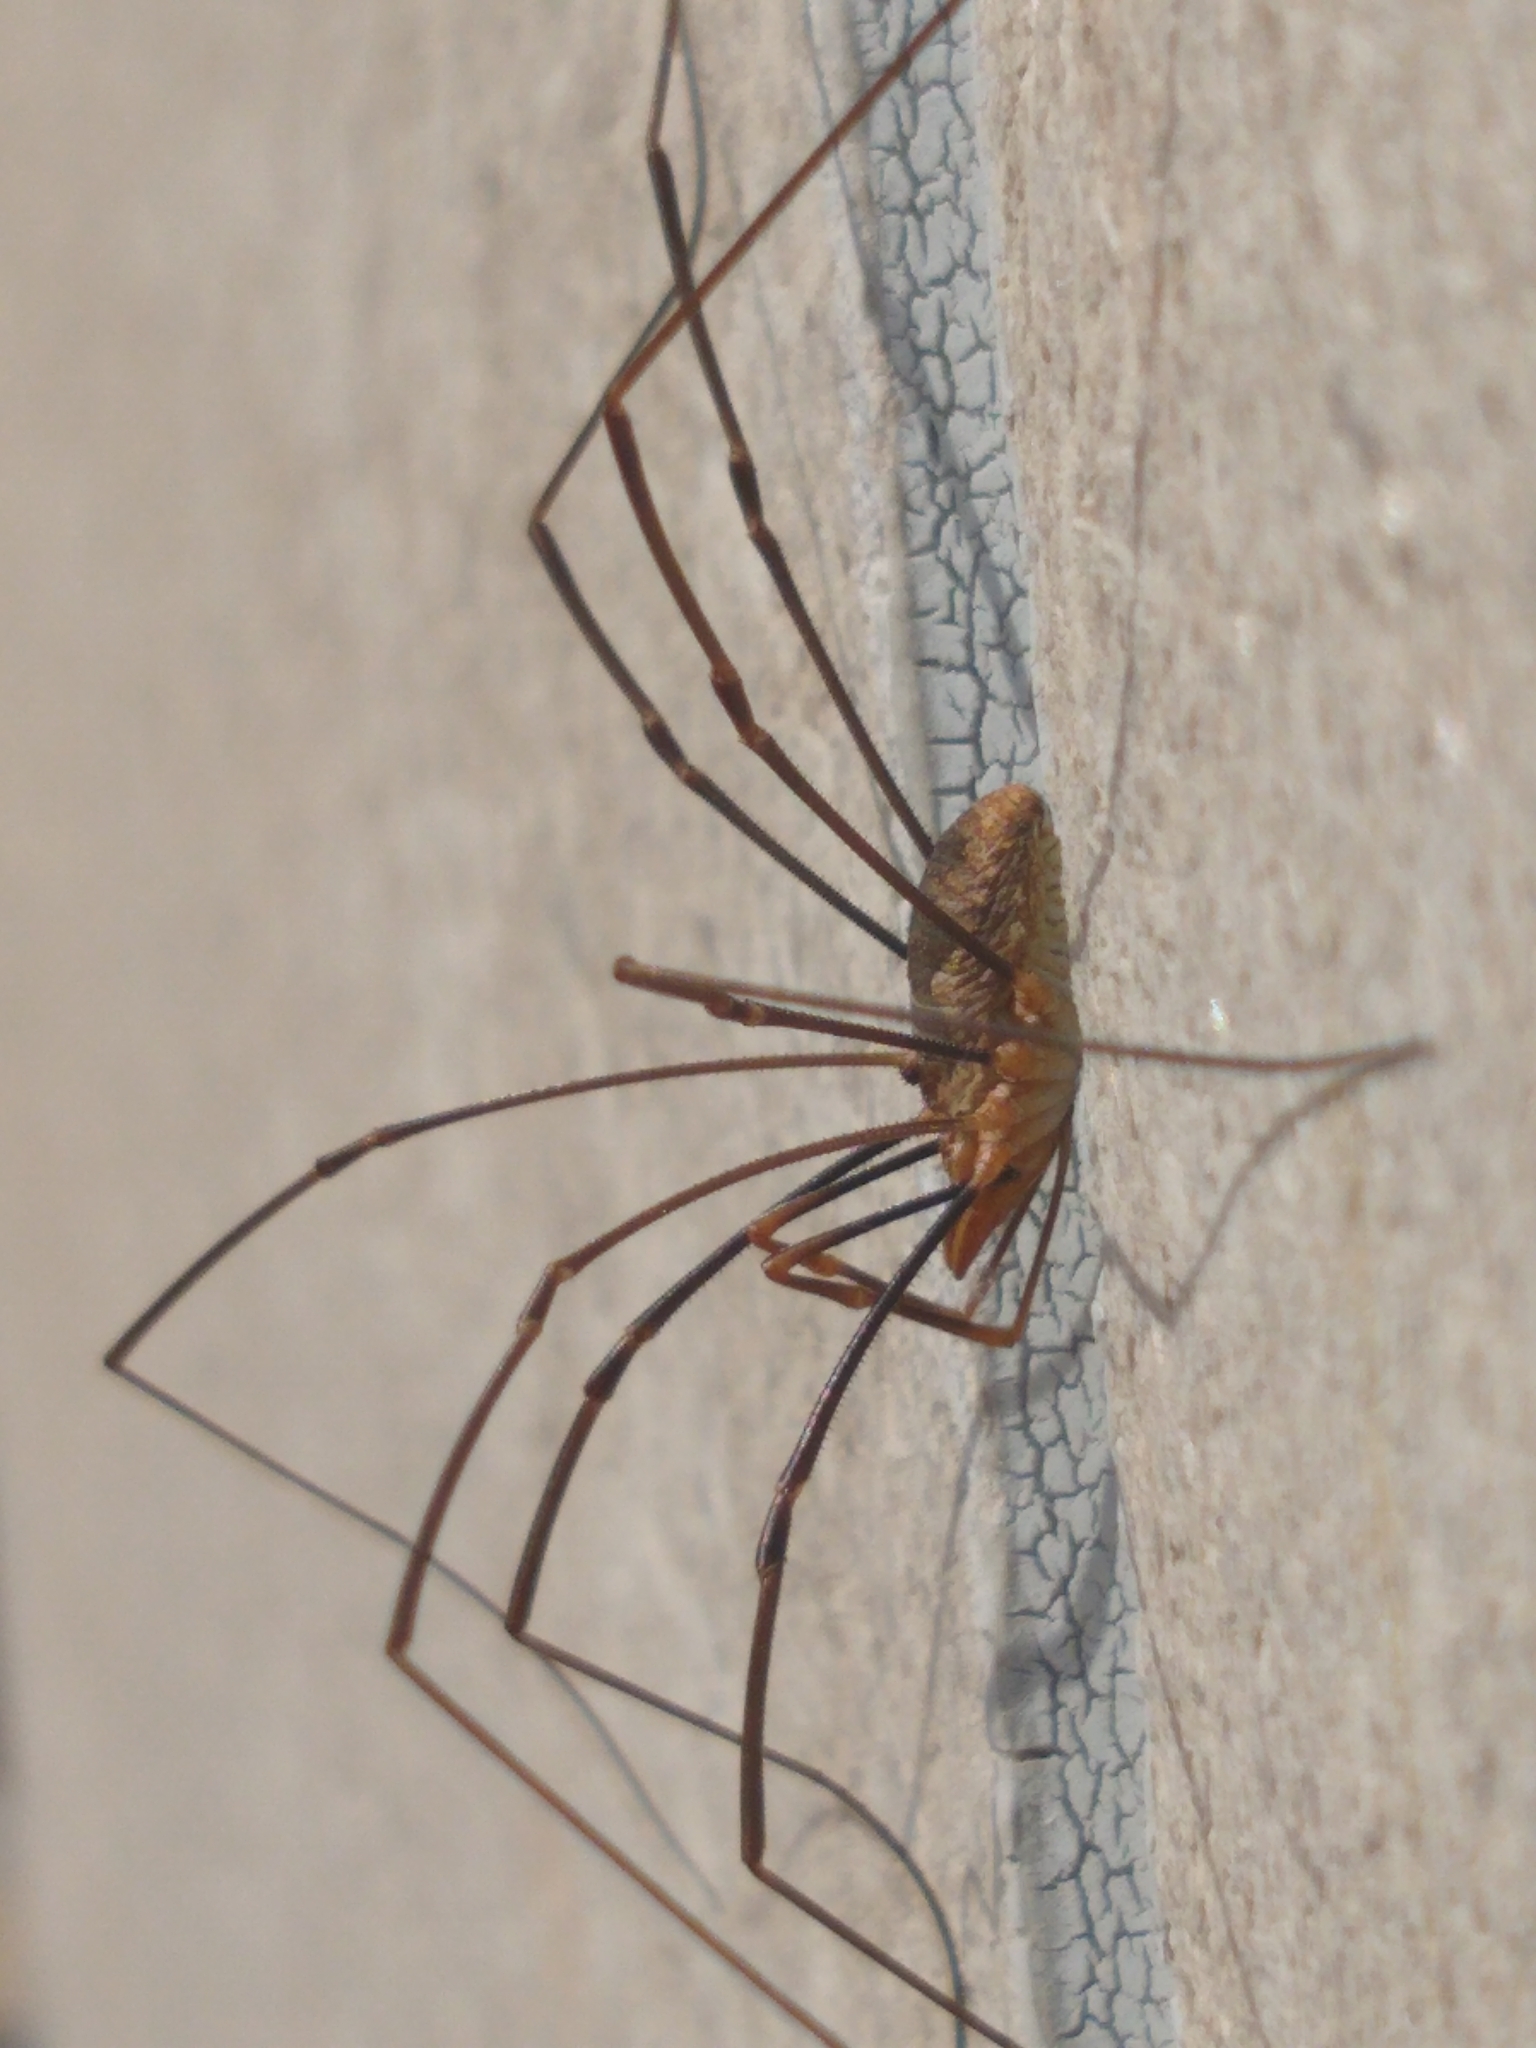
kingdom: Animalia
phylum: Arthropoda
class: Arachnida
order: Opiliones
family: Phalangiidae
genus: Phalangium
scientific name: Phalangium opilio
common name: Daddy longleg
